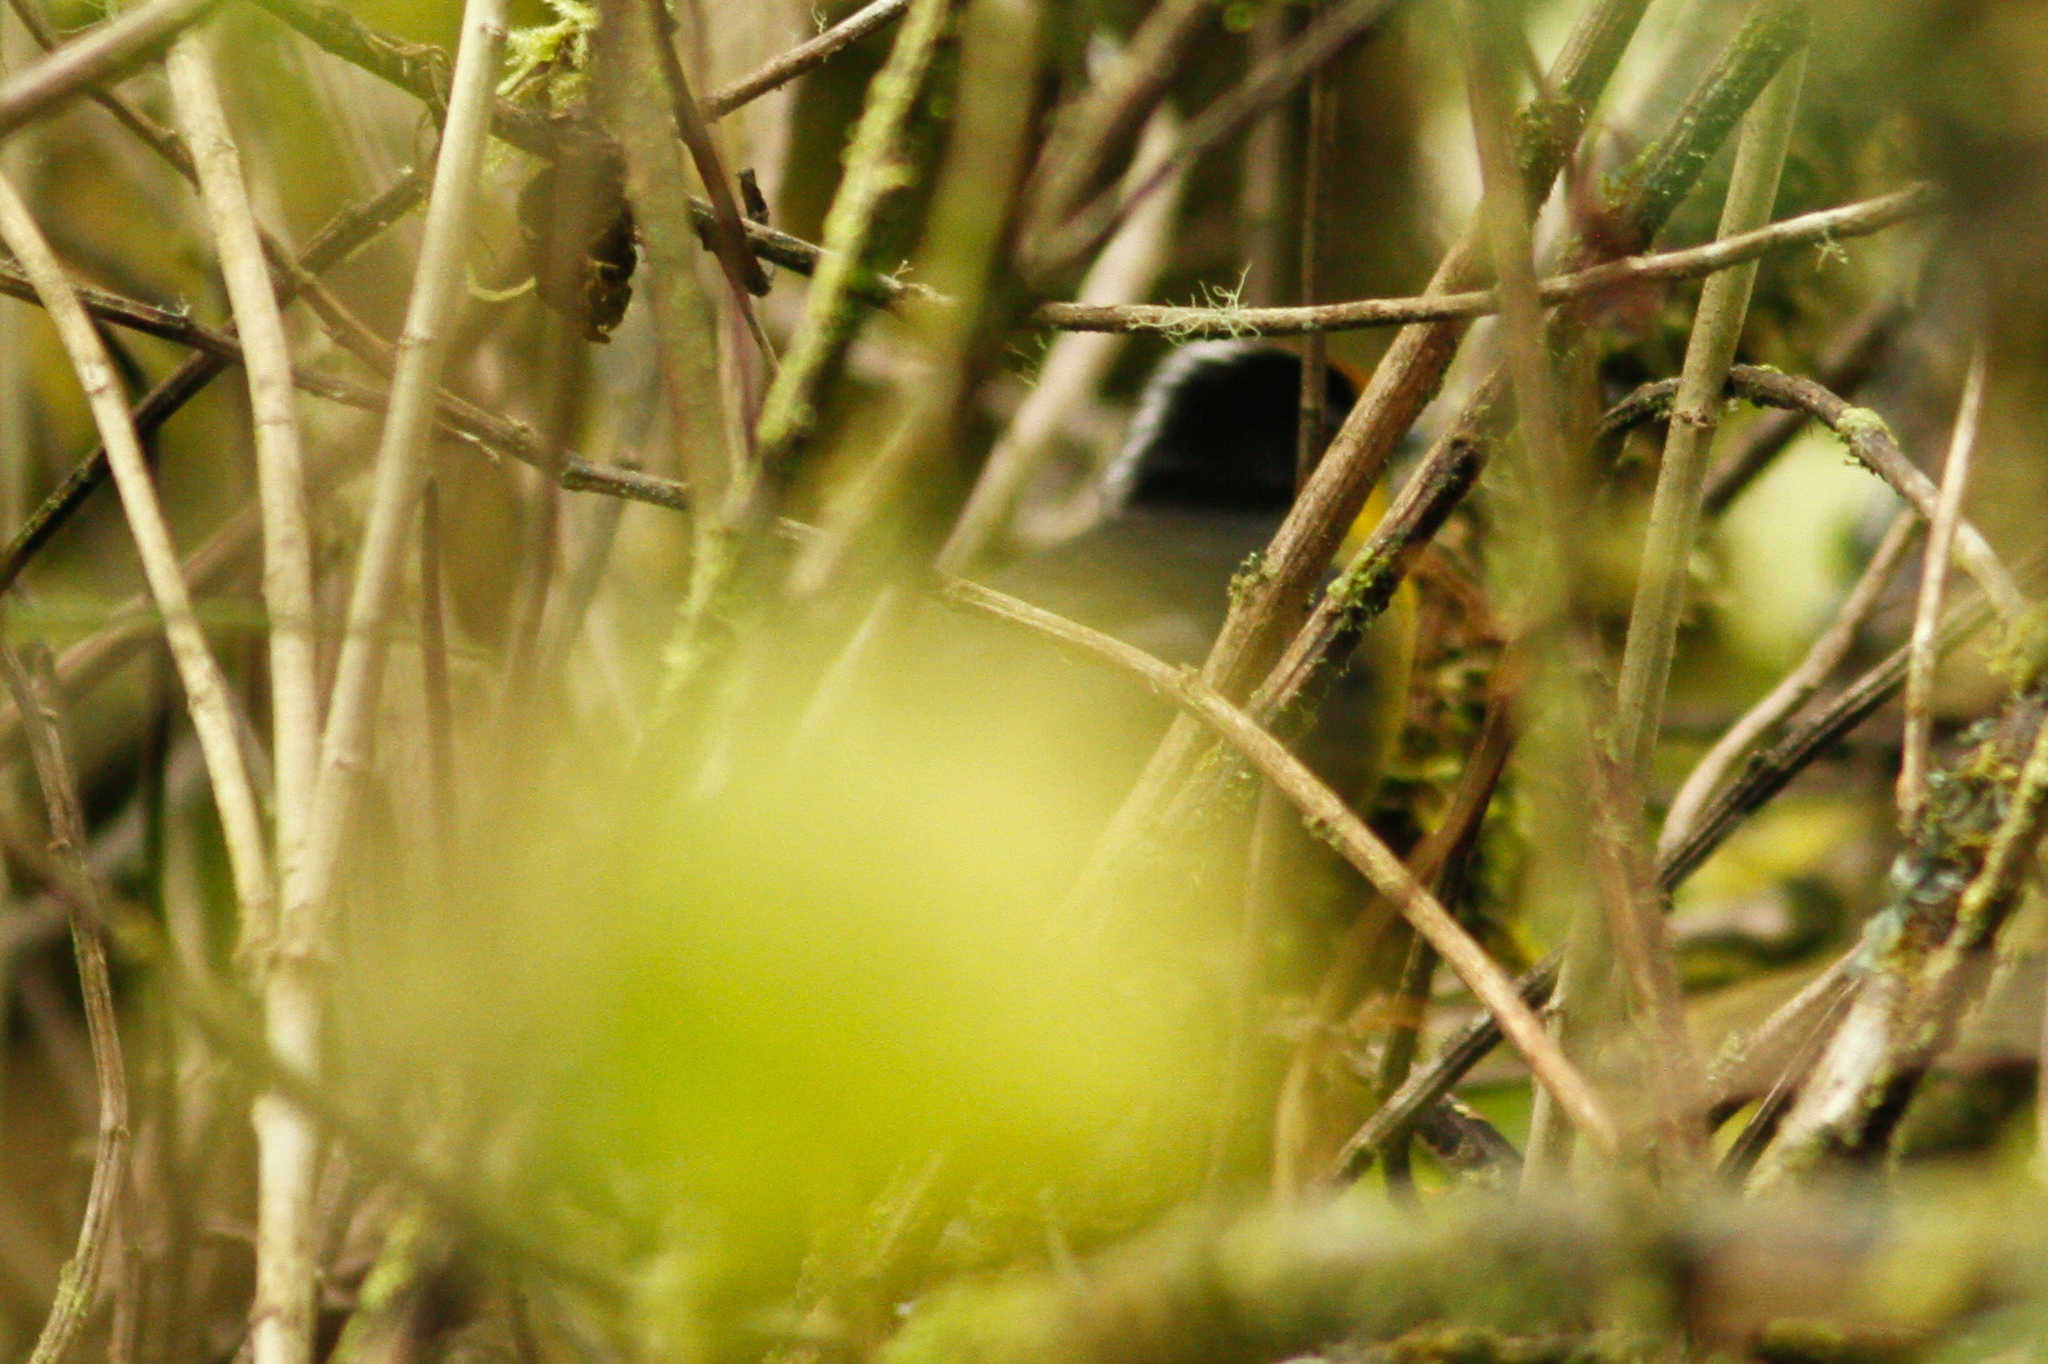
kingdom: Animalia
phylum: Chordata
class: Aves
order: Passeriformes
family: Passerellidae
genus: Atlapetes
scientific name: Atlapetes pallidinucha
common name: Pale-naped brushfinch
